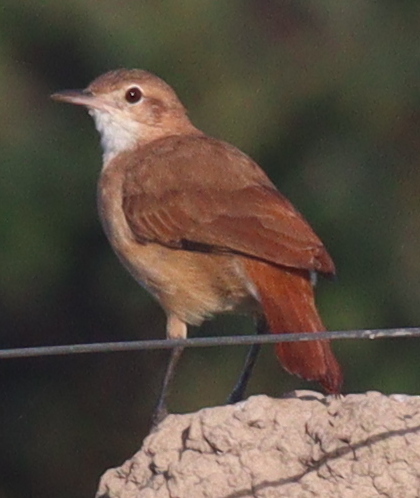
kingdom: Animalia
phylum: Chordata
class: Aves
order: Passeriformes
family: Furnariidae
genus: Furnarius
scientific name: Furnarius rufus
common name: Rufous hornero
